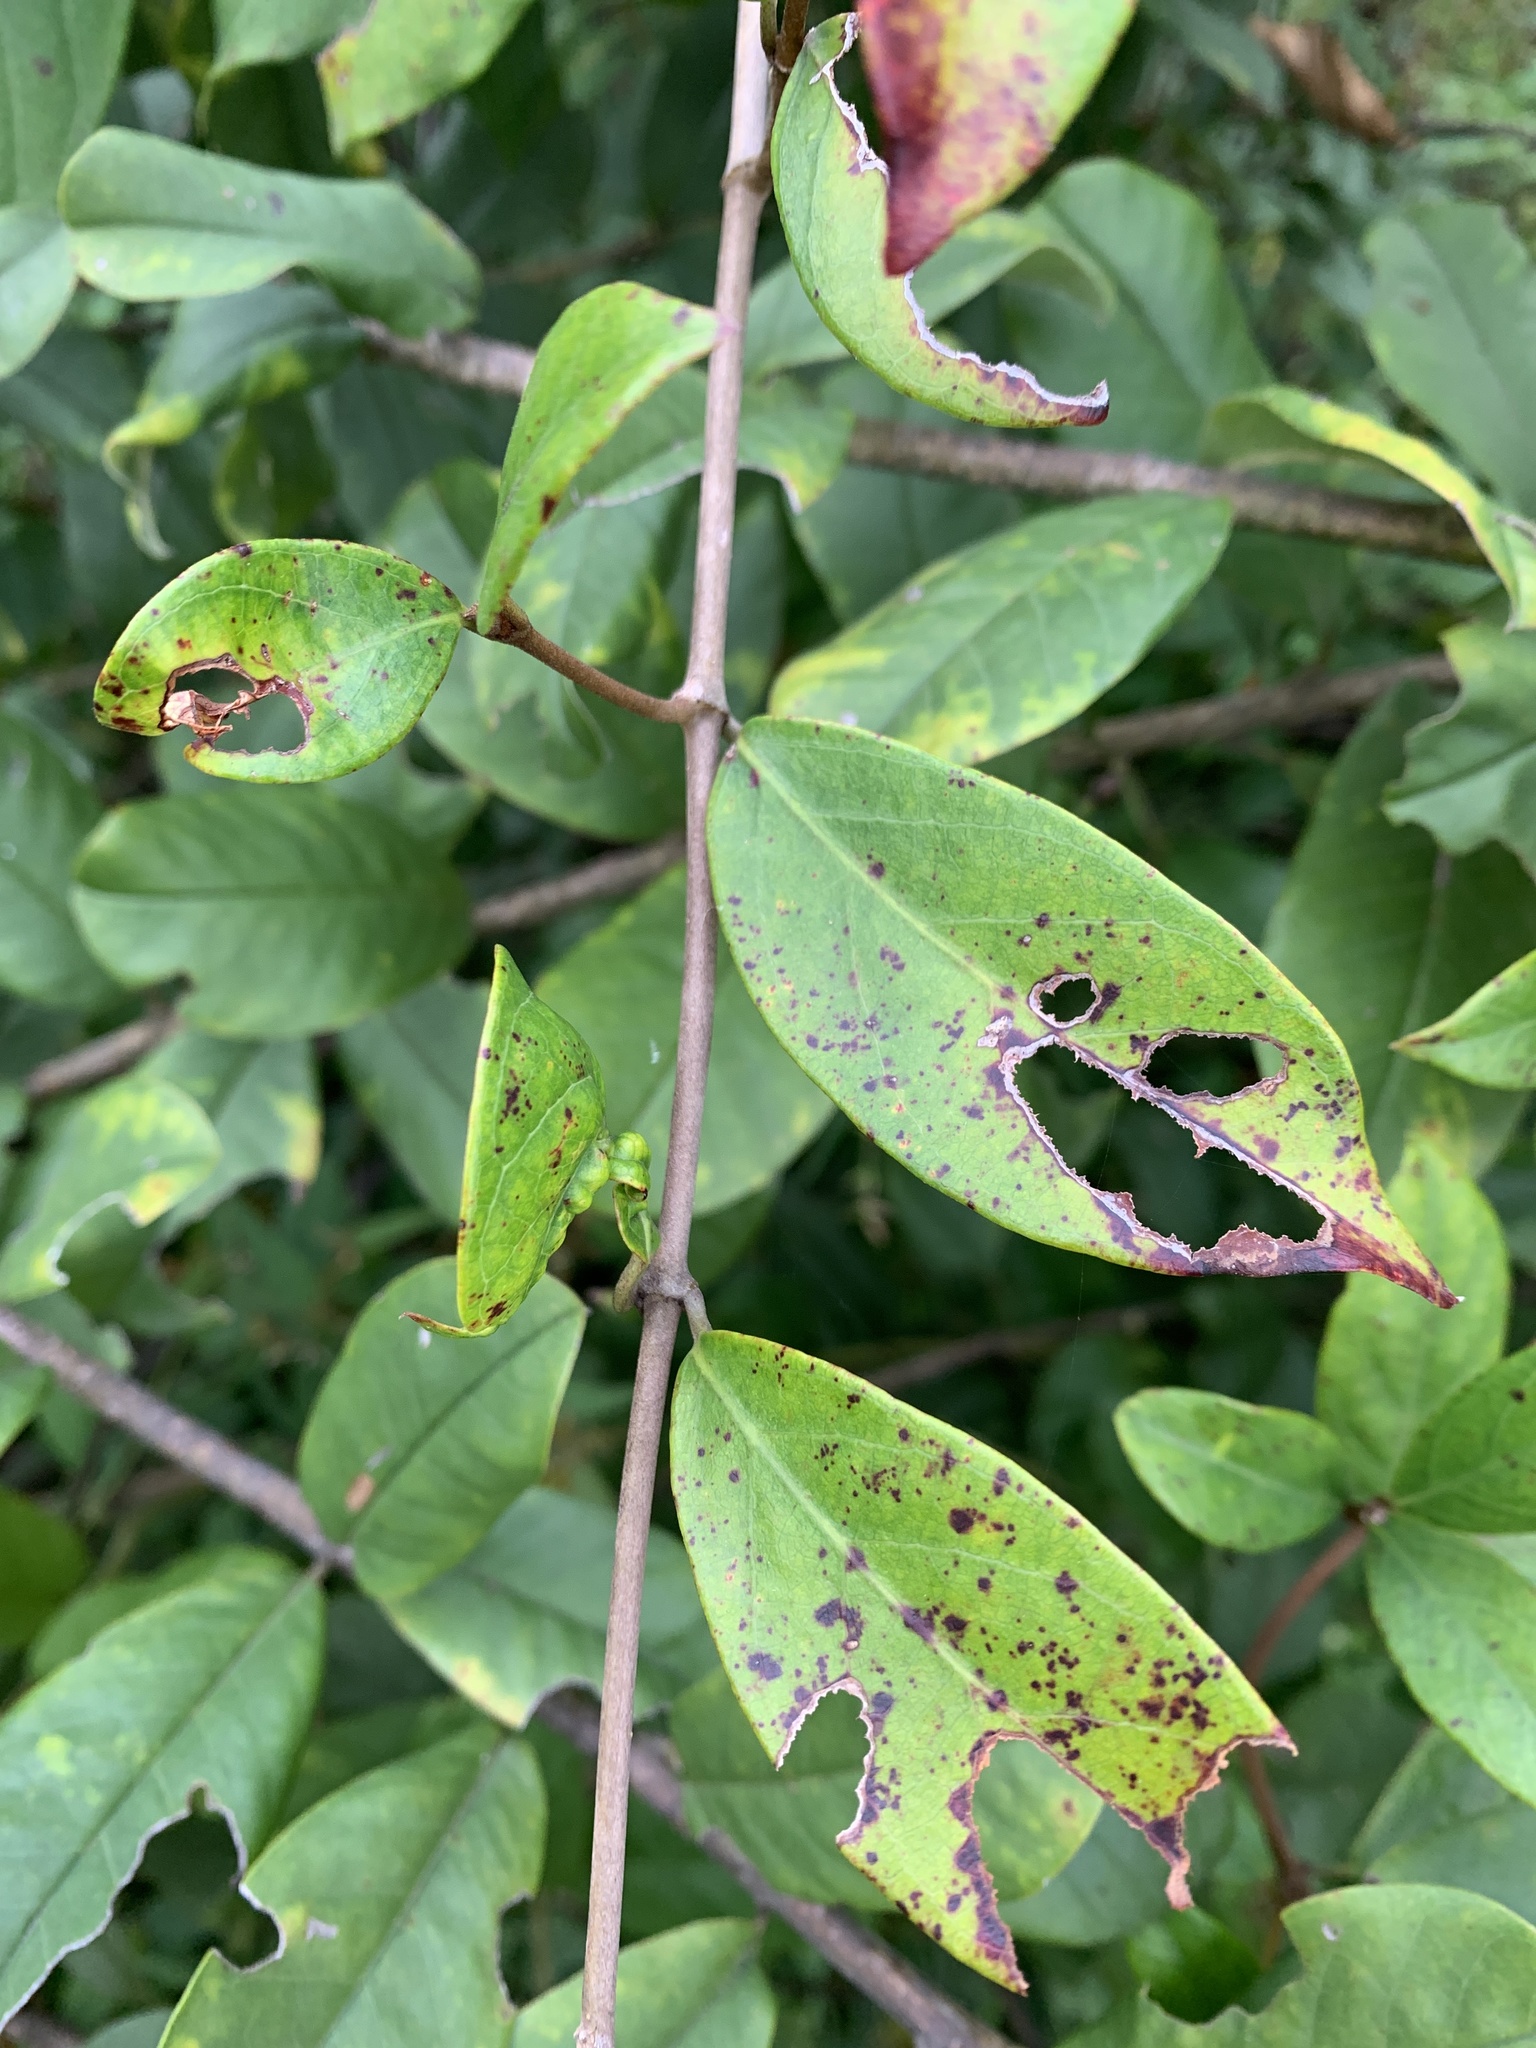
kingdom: Plantae
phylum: Tracheophyta
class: Magnoliopsida
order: Gentianales
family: Apocynaceae
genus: Ichnocarpus
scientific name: Ichnocarpus frutescens
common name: Ichnocarpus
